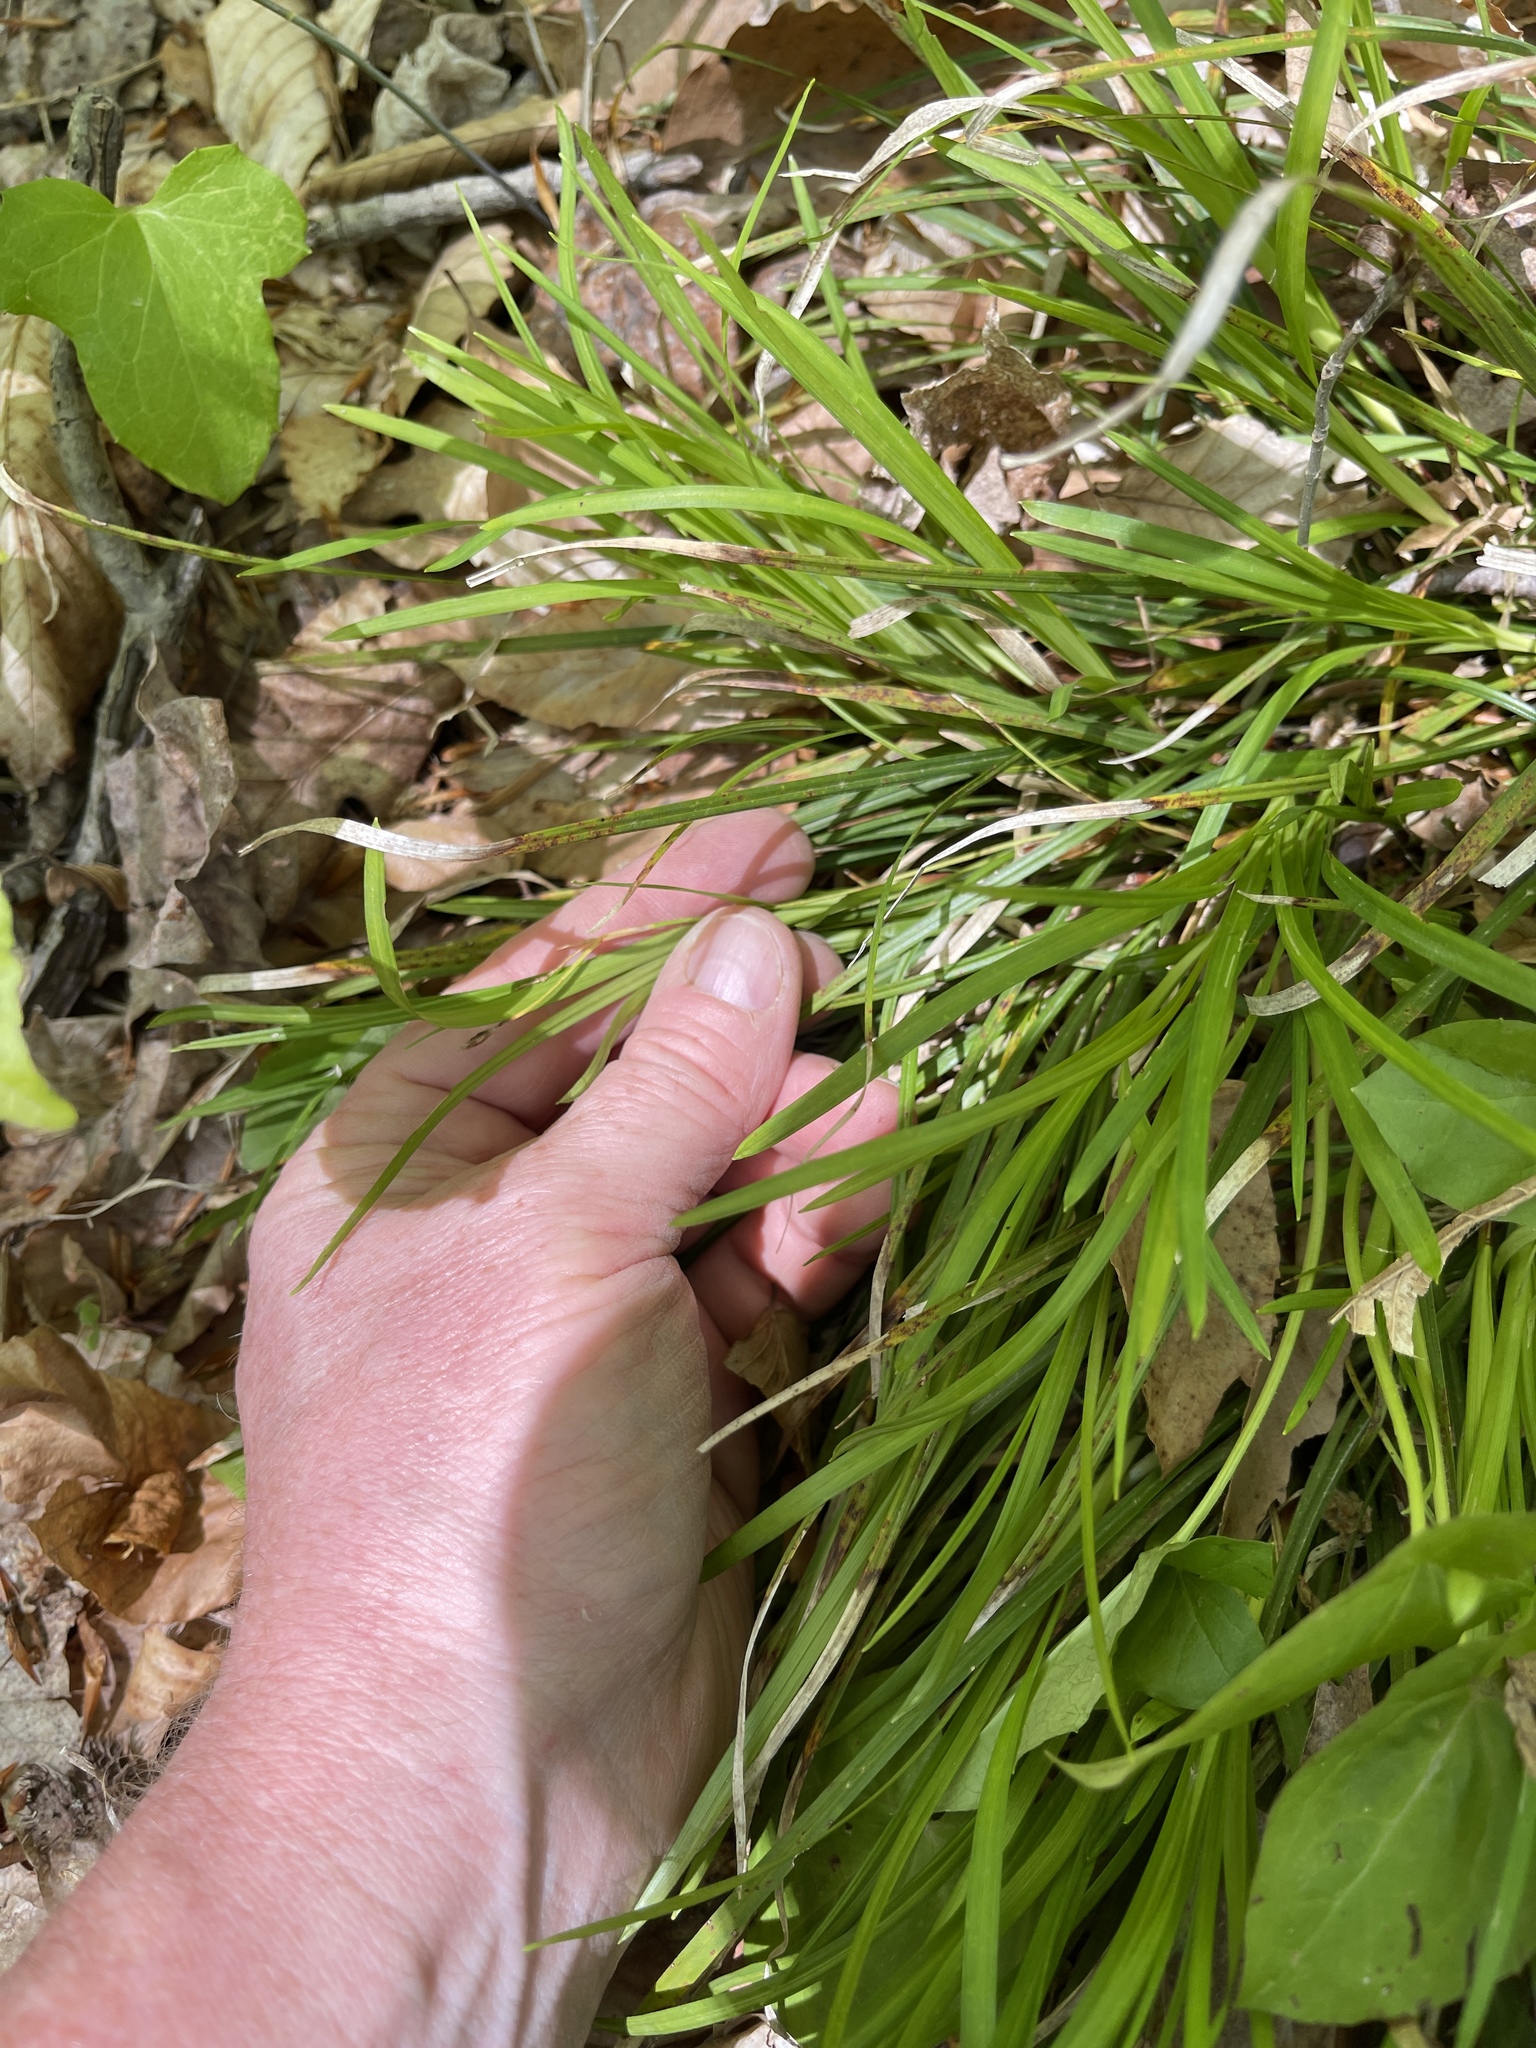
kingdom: Plantae
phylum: Tracheophyta
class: Liliopsida
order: Poales
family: Cyperaceae
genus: Carex
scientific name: Carex pedunculata
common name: Pedunculate sedge
